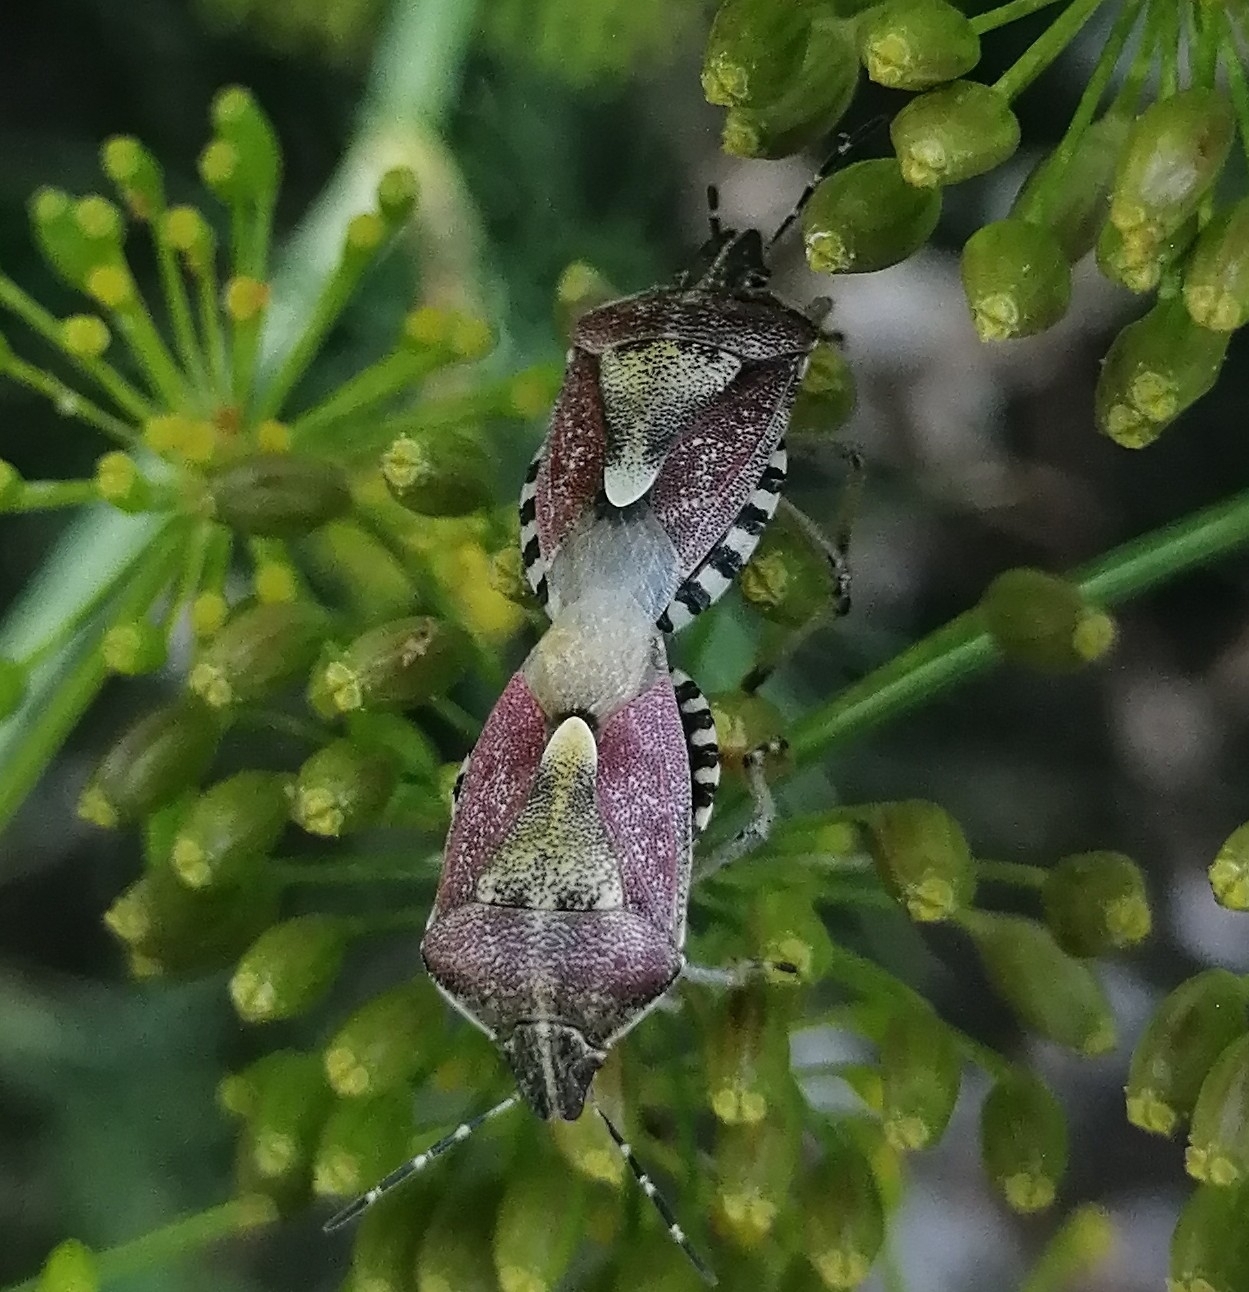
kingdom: Animalia
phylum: Arthropoda
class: Insecta
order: Hemiptera
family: Pentatomidae
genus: Dolycoris
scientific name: Dolycoris baccarum
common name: Sloe bug
